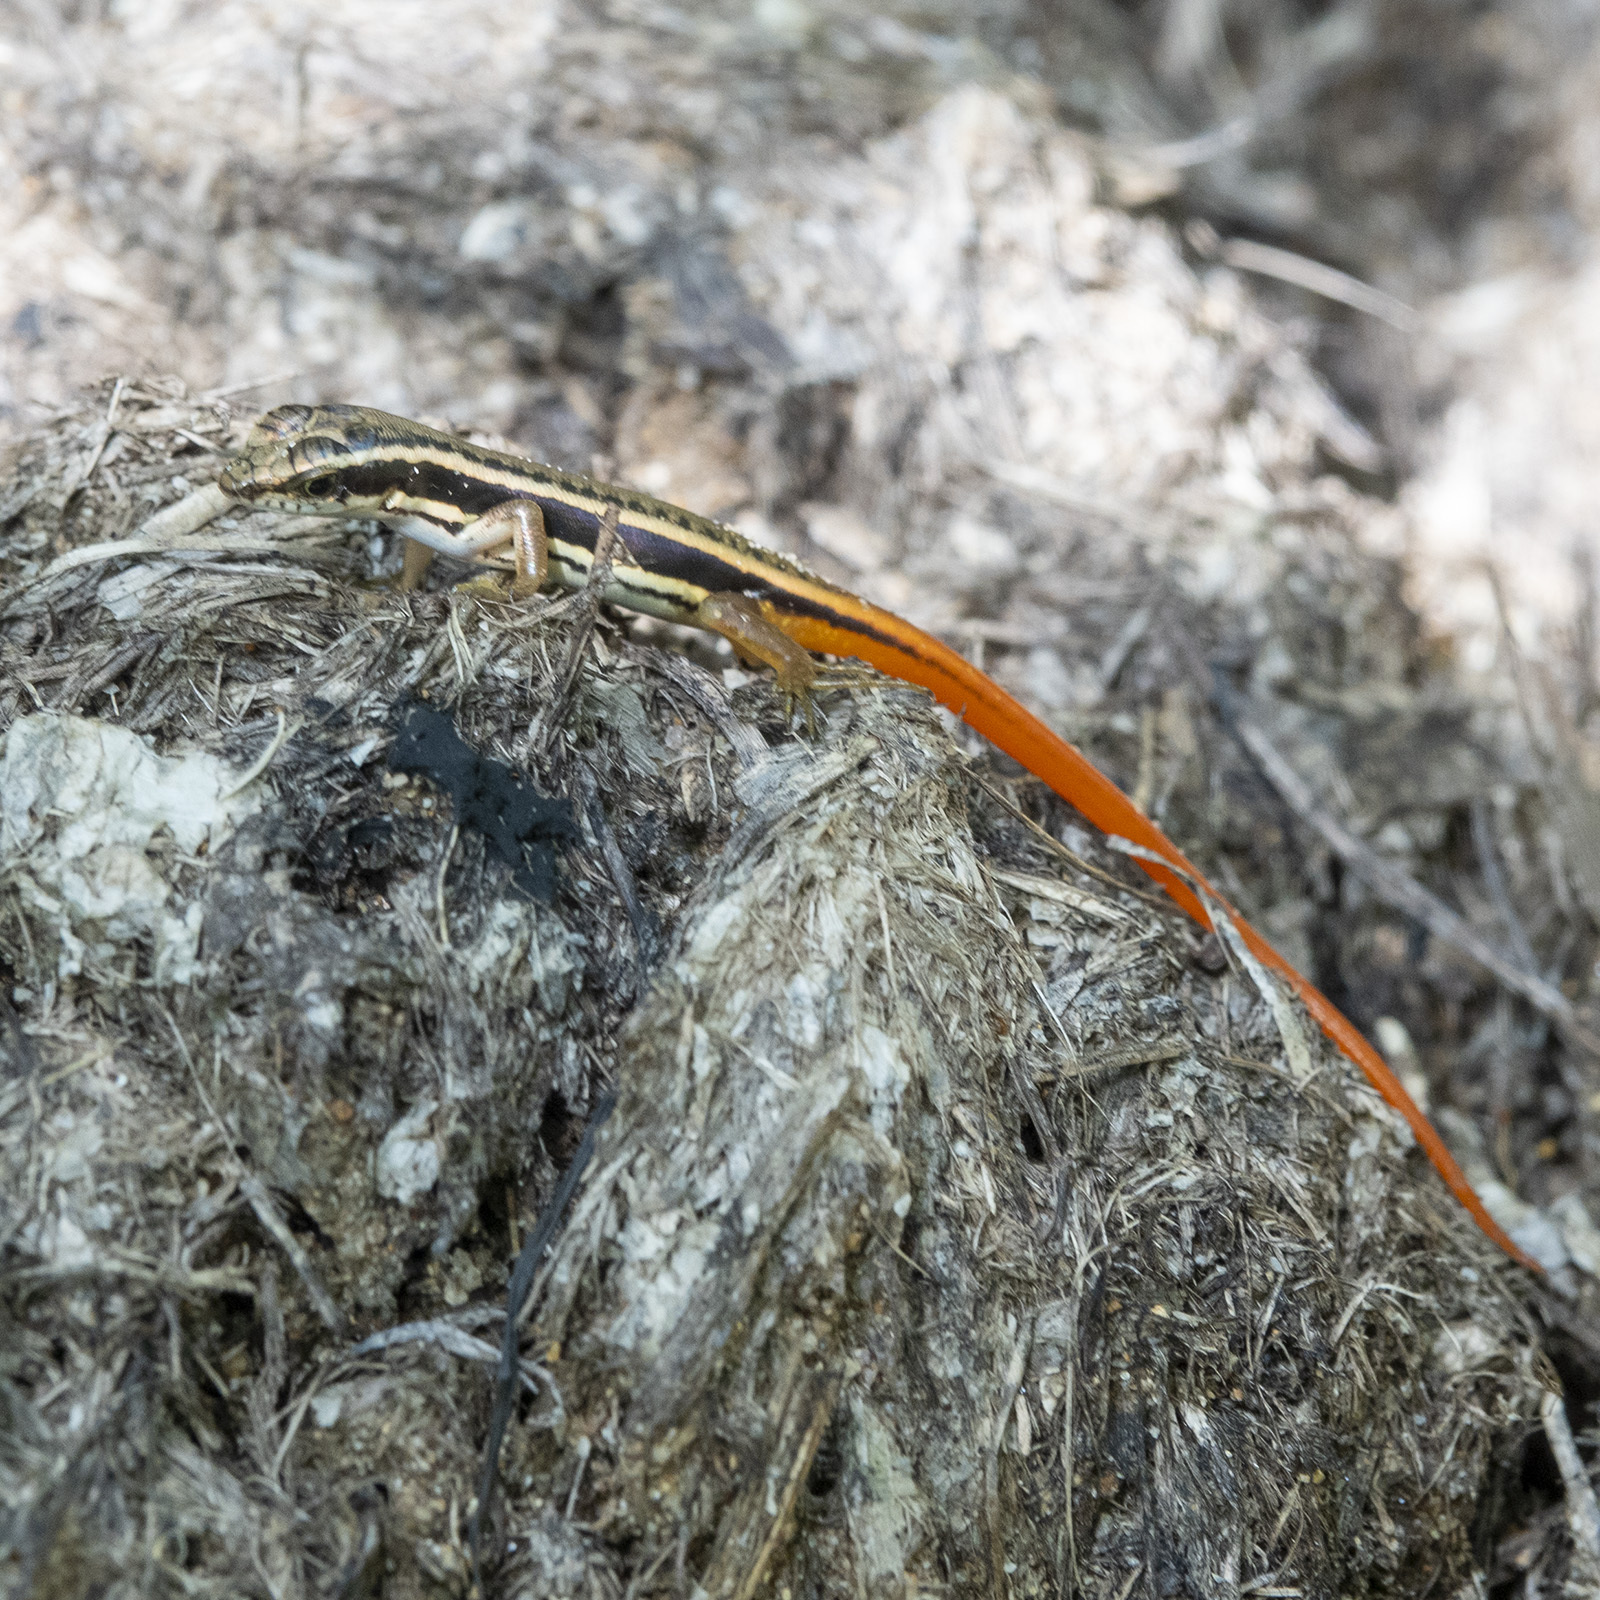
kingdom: Animalia
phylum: Chordata
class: Squamata
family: Scincidae
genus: Sphenomorphus
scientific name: Sphenomorphus dussumieri
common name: Dussumier's forest skink
